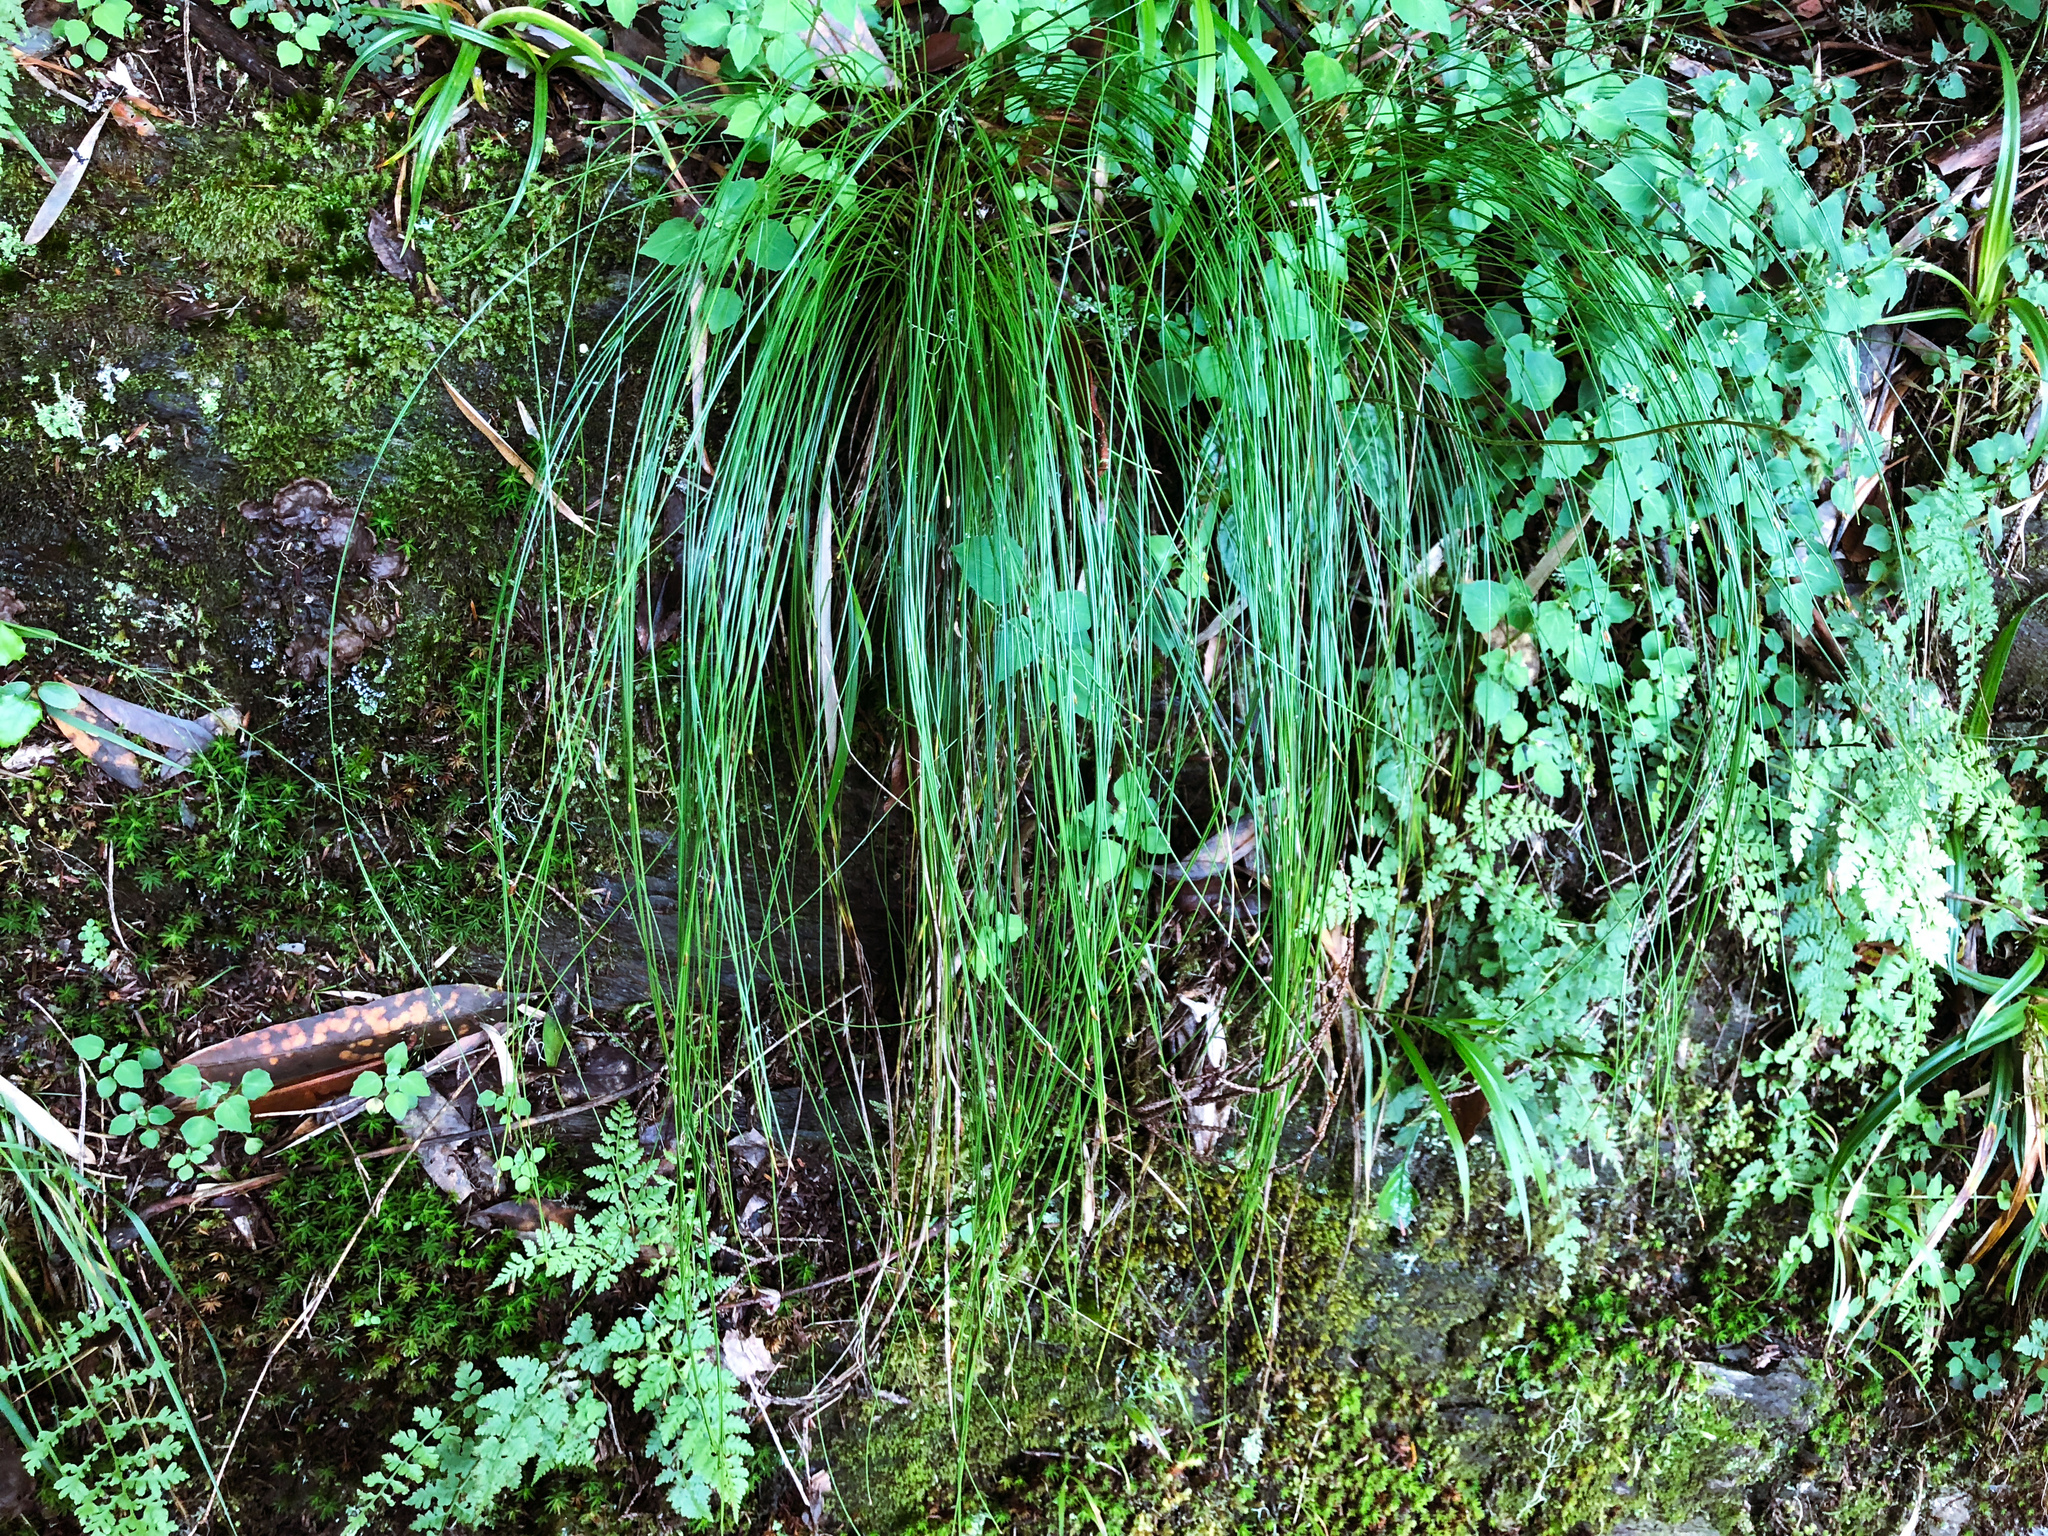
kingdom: Plantae
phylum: Tracheophyta
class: Liliopsida
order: Poales
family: Cyperaceae
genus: Trichophorum
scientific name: Trichophorum subcapitatum
